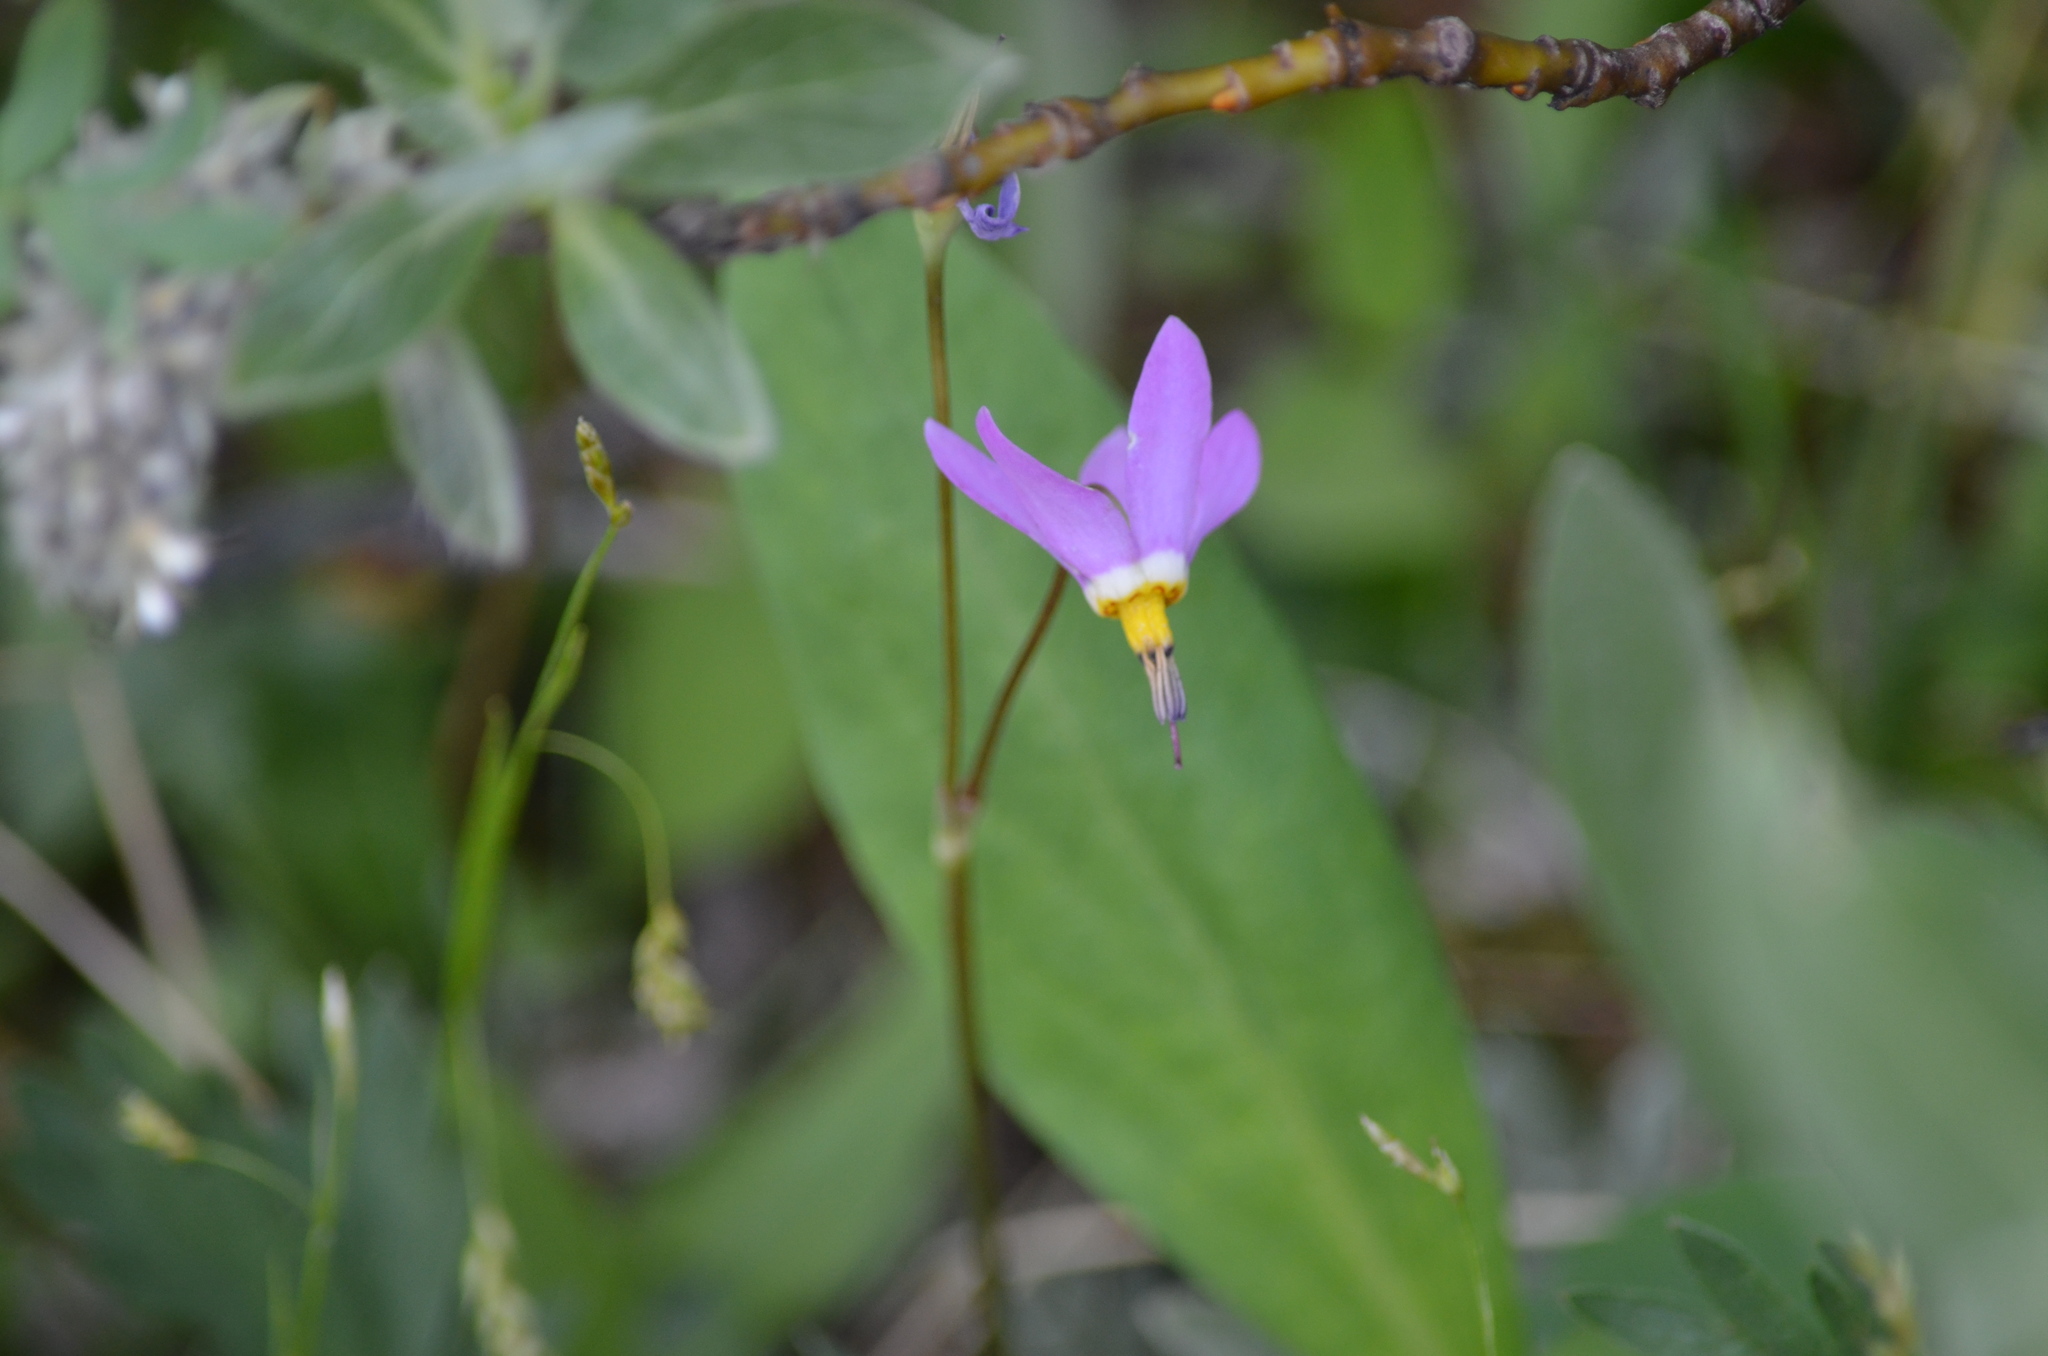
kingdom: Plantae
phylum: Tracheophyta
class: Magnoliopsida
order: Ericales
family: Primulaceae
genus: Dodecatheon
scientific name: Dodecatheon pulchellum
